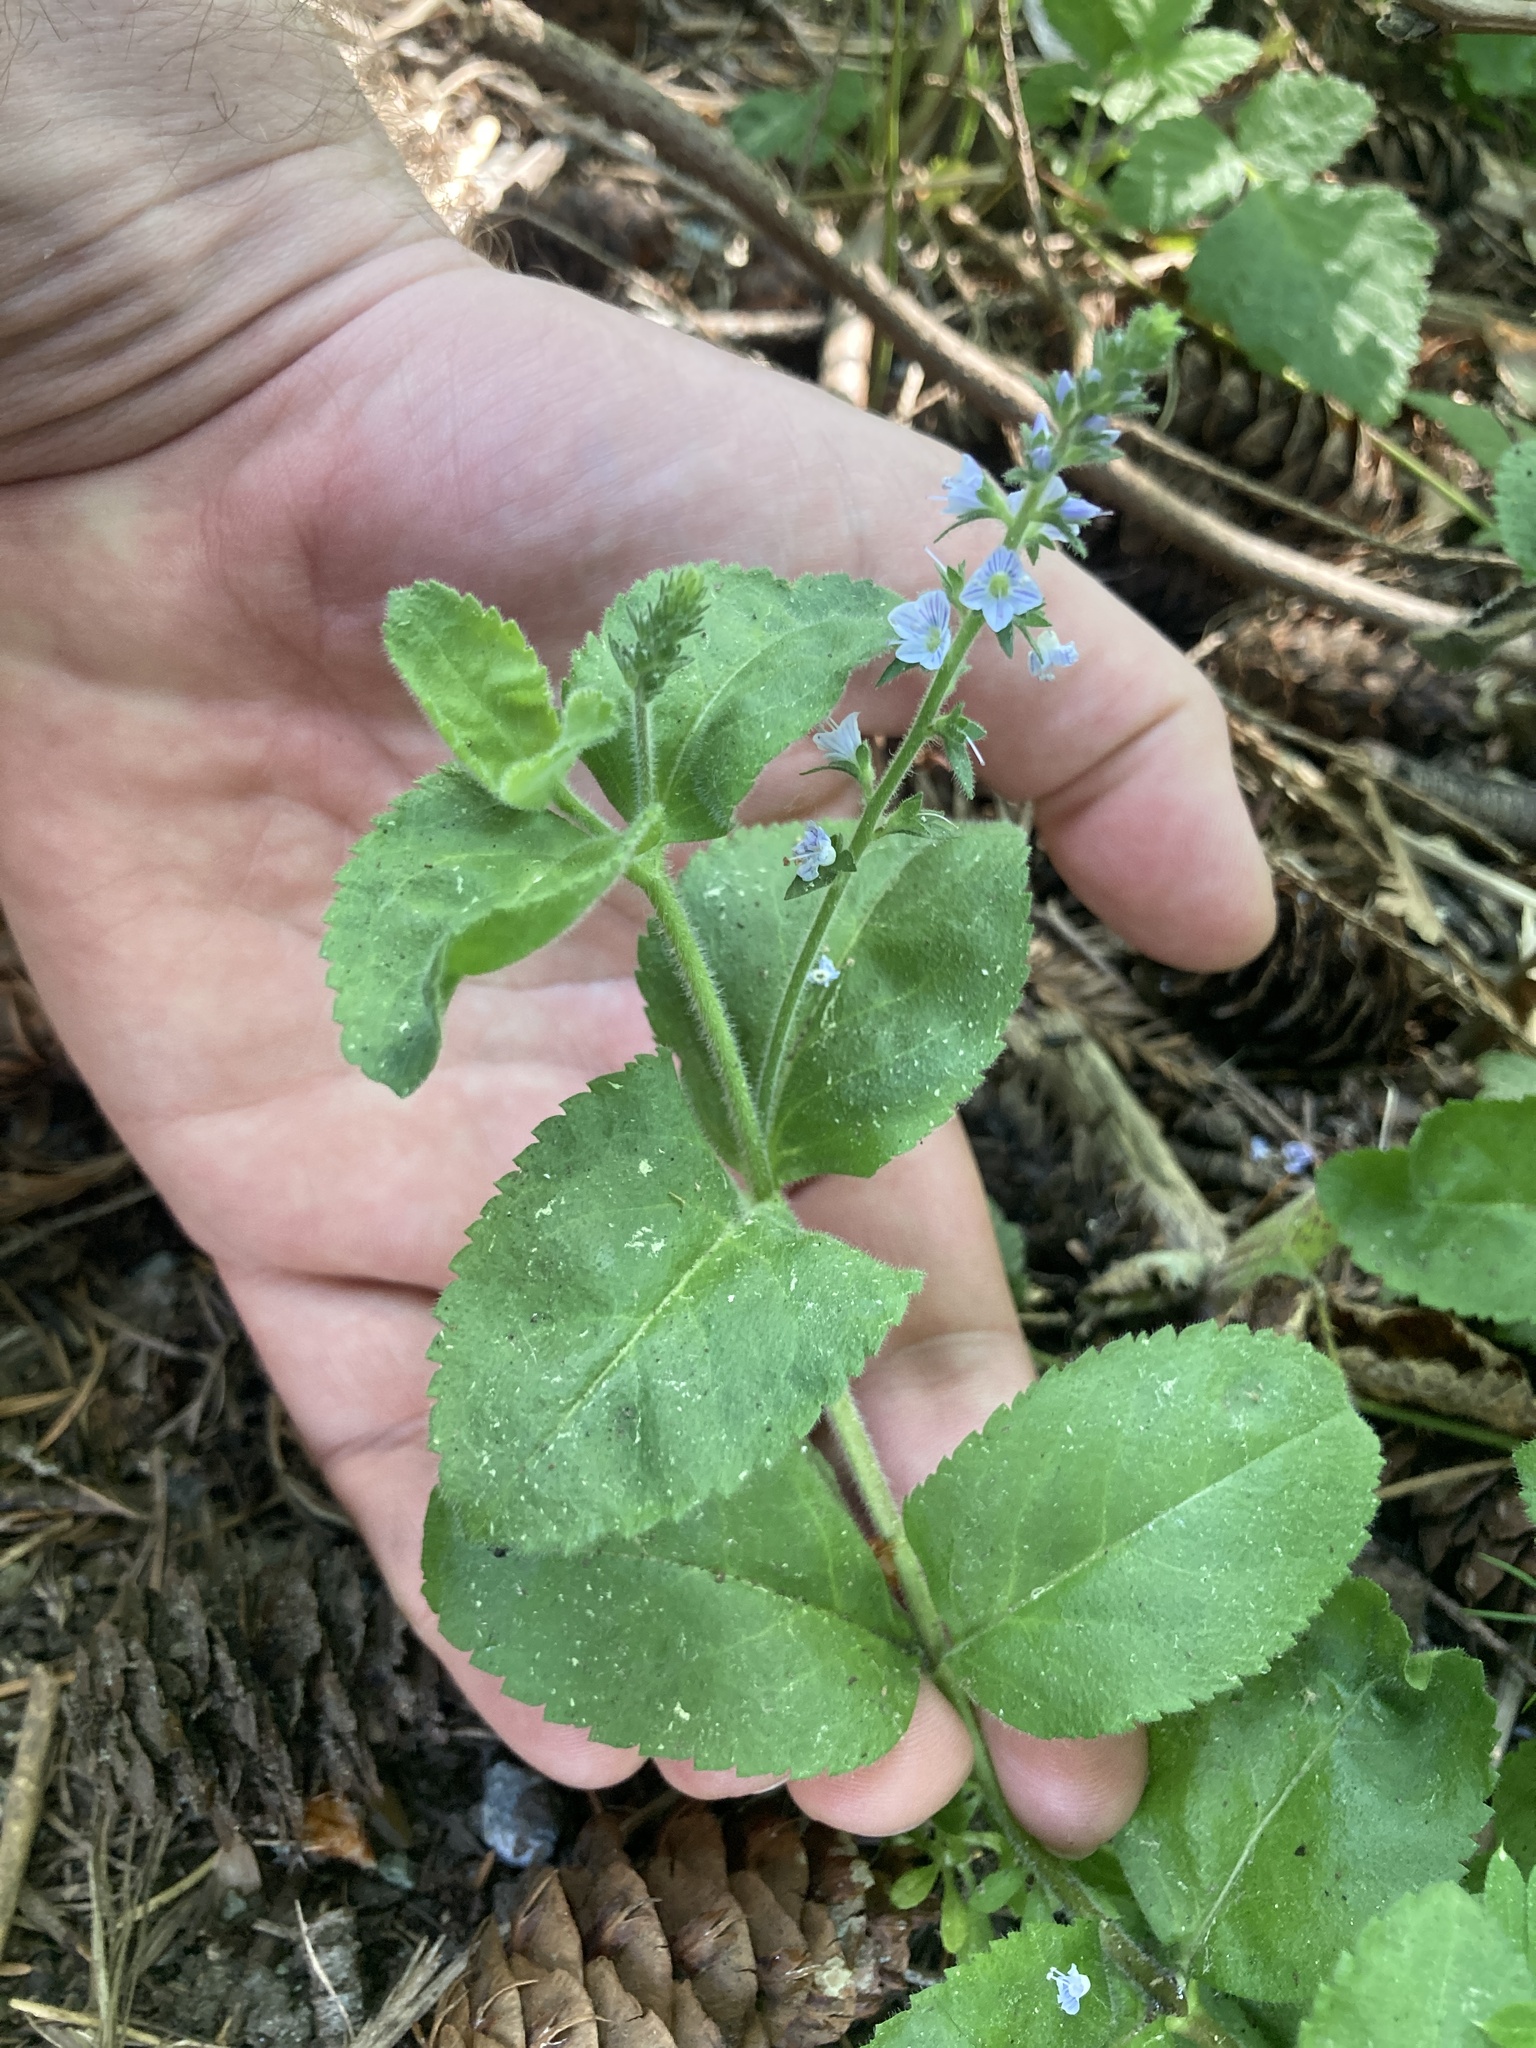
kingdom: Plantae
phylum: Tracheophyta
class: Magnoliopsida
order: Lamiales
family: Plantaginaceae
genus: Veronica
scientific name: Veronica officinalis
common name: Common speedwell
